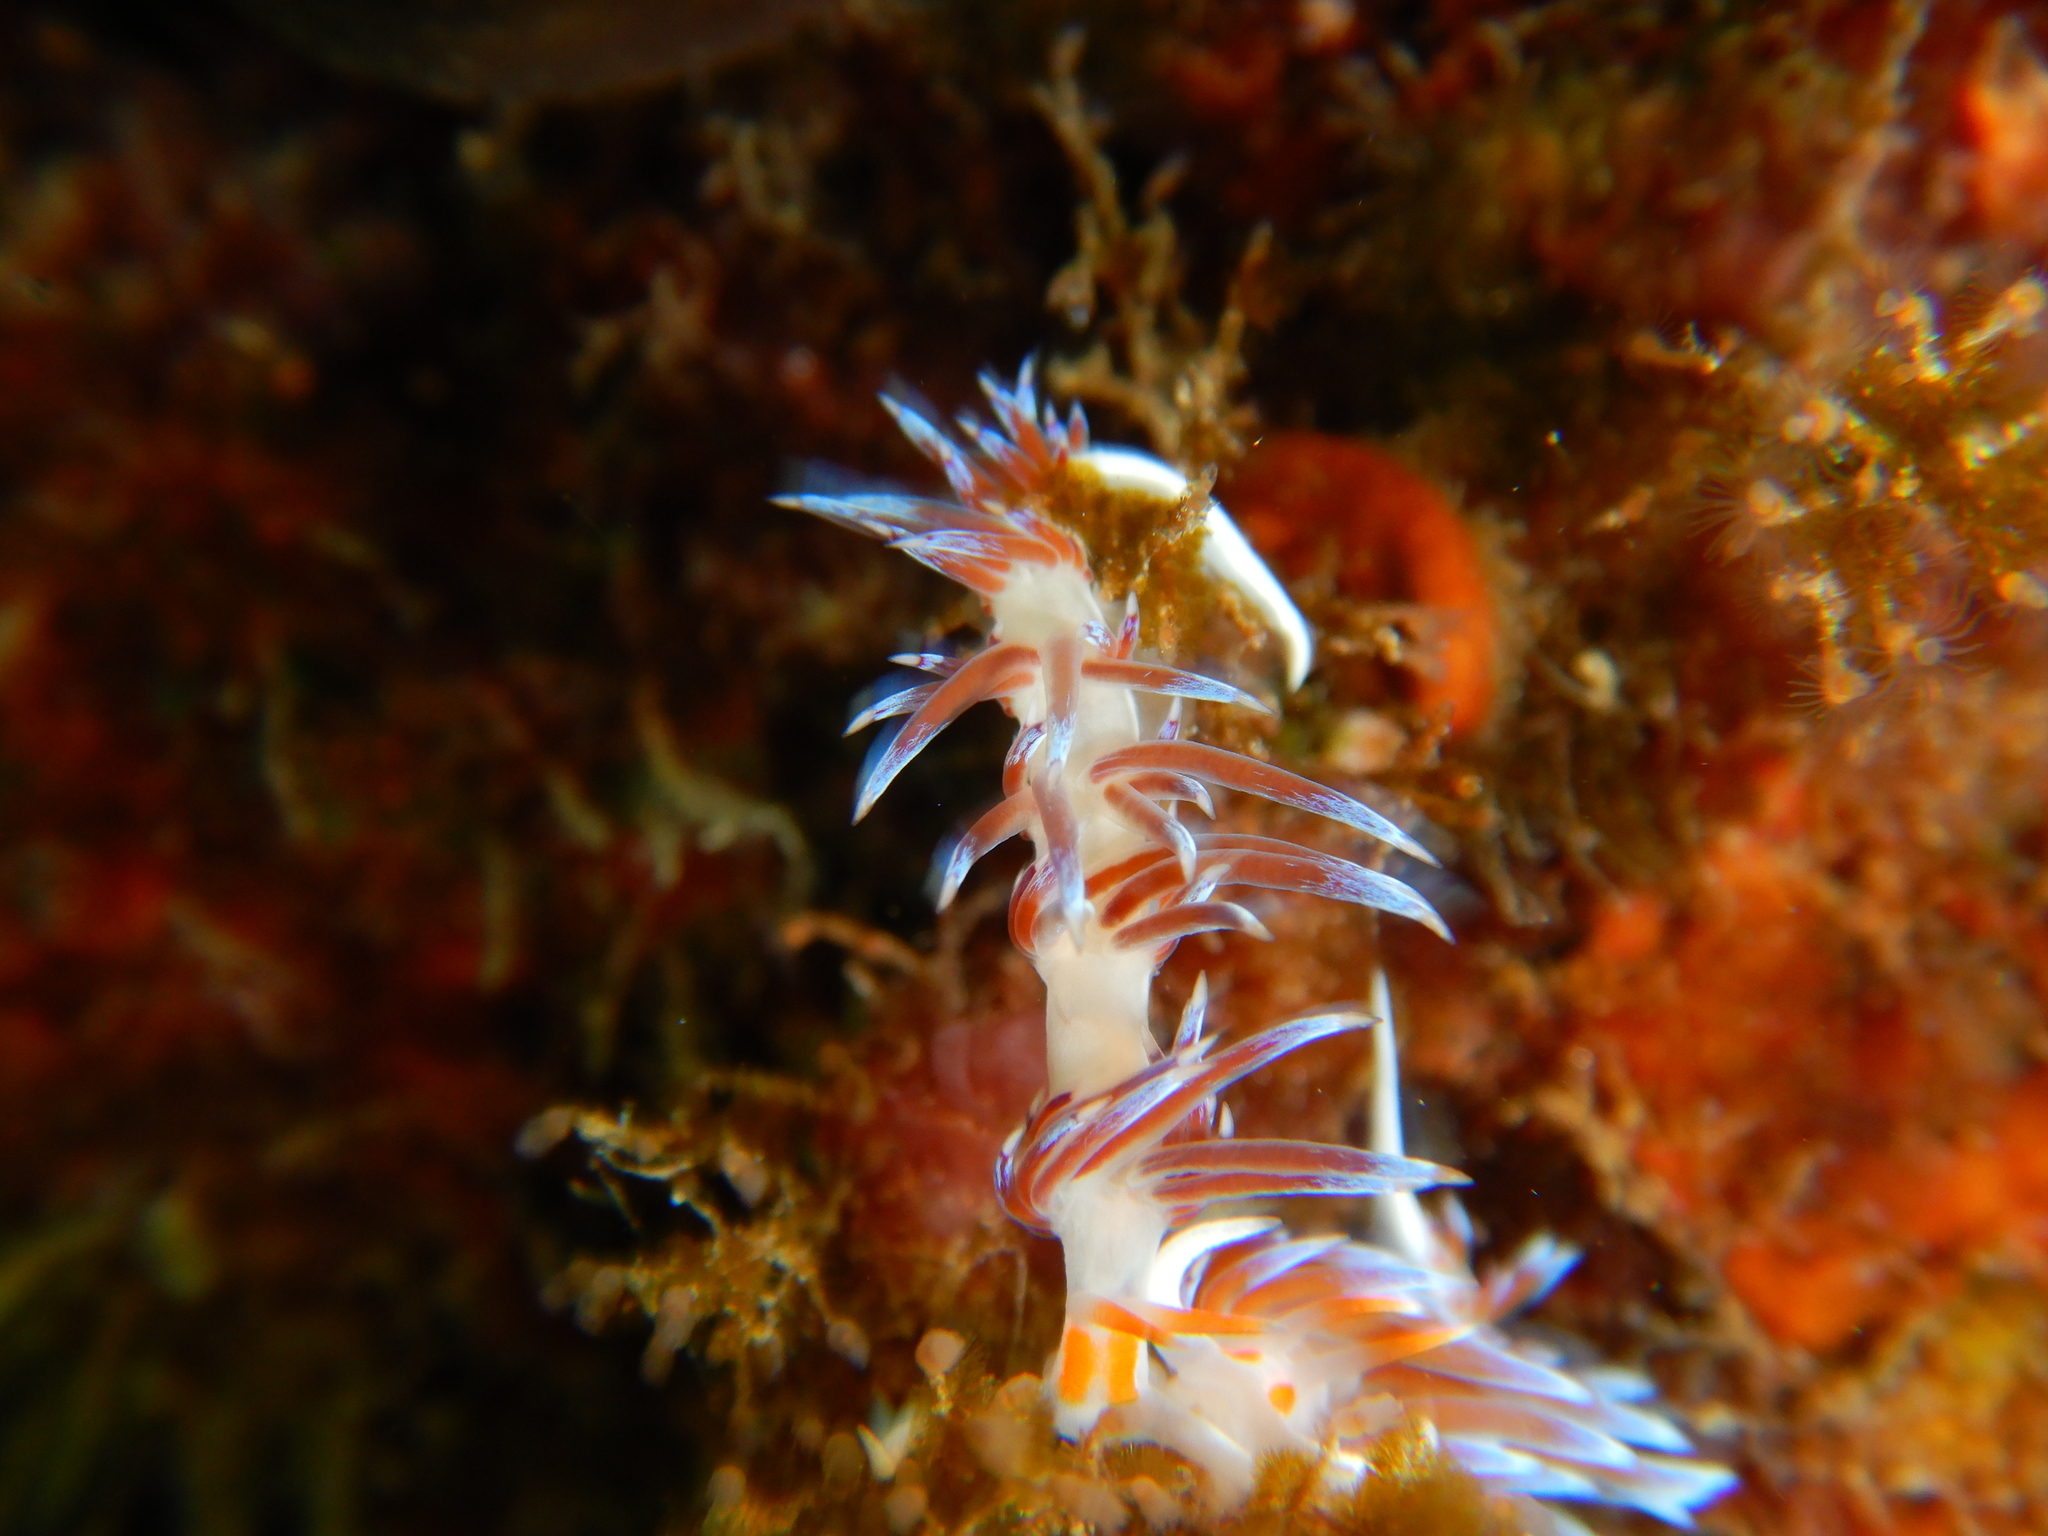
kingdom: Animalia
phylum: Mollusca
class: Gastropoda
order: Nudibranchia
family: Facelinidae
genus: Cratena
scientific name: Cratena peregrina
